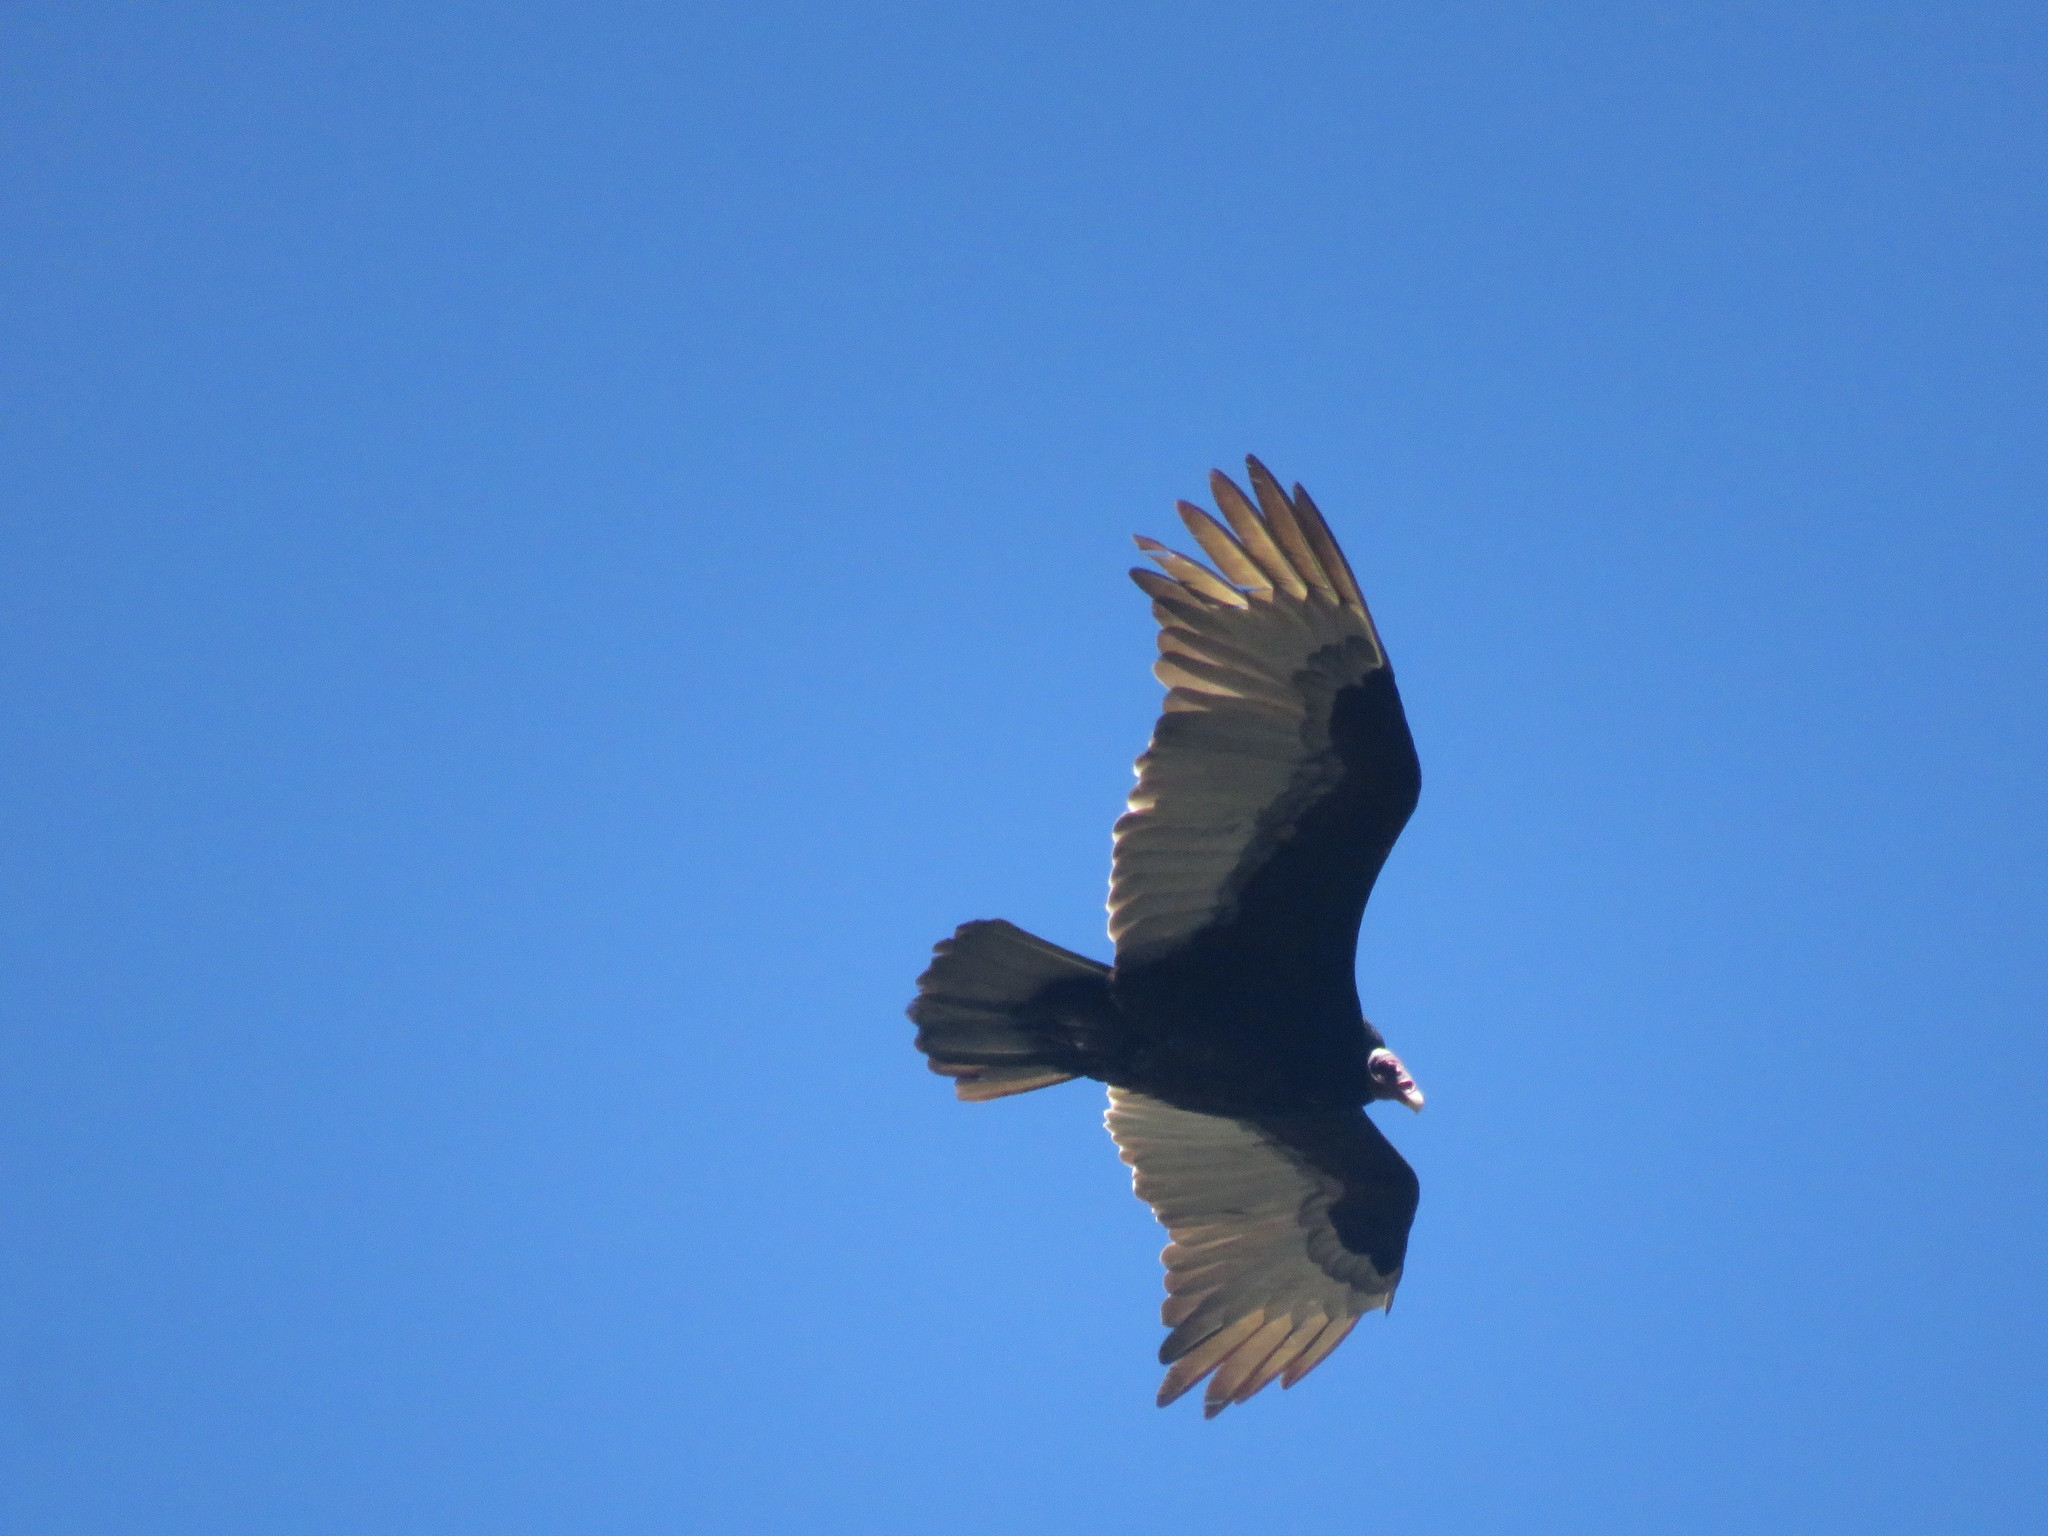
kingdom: Animalia
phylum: Chordata
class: Aves
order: Accipitriformes
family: Cathartidae
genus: Cathartes
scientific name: Cathartes aura
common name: Turkey vulture
